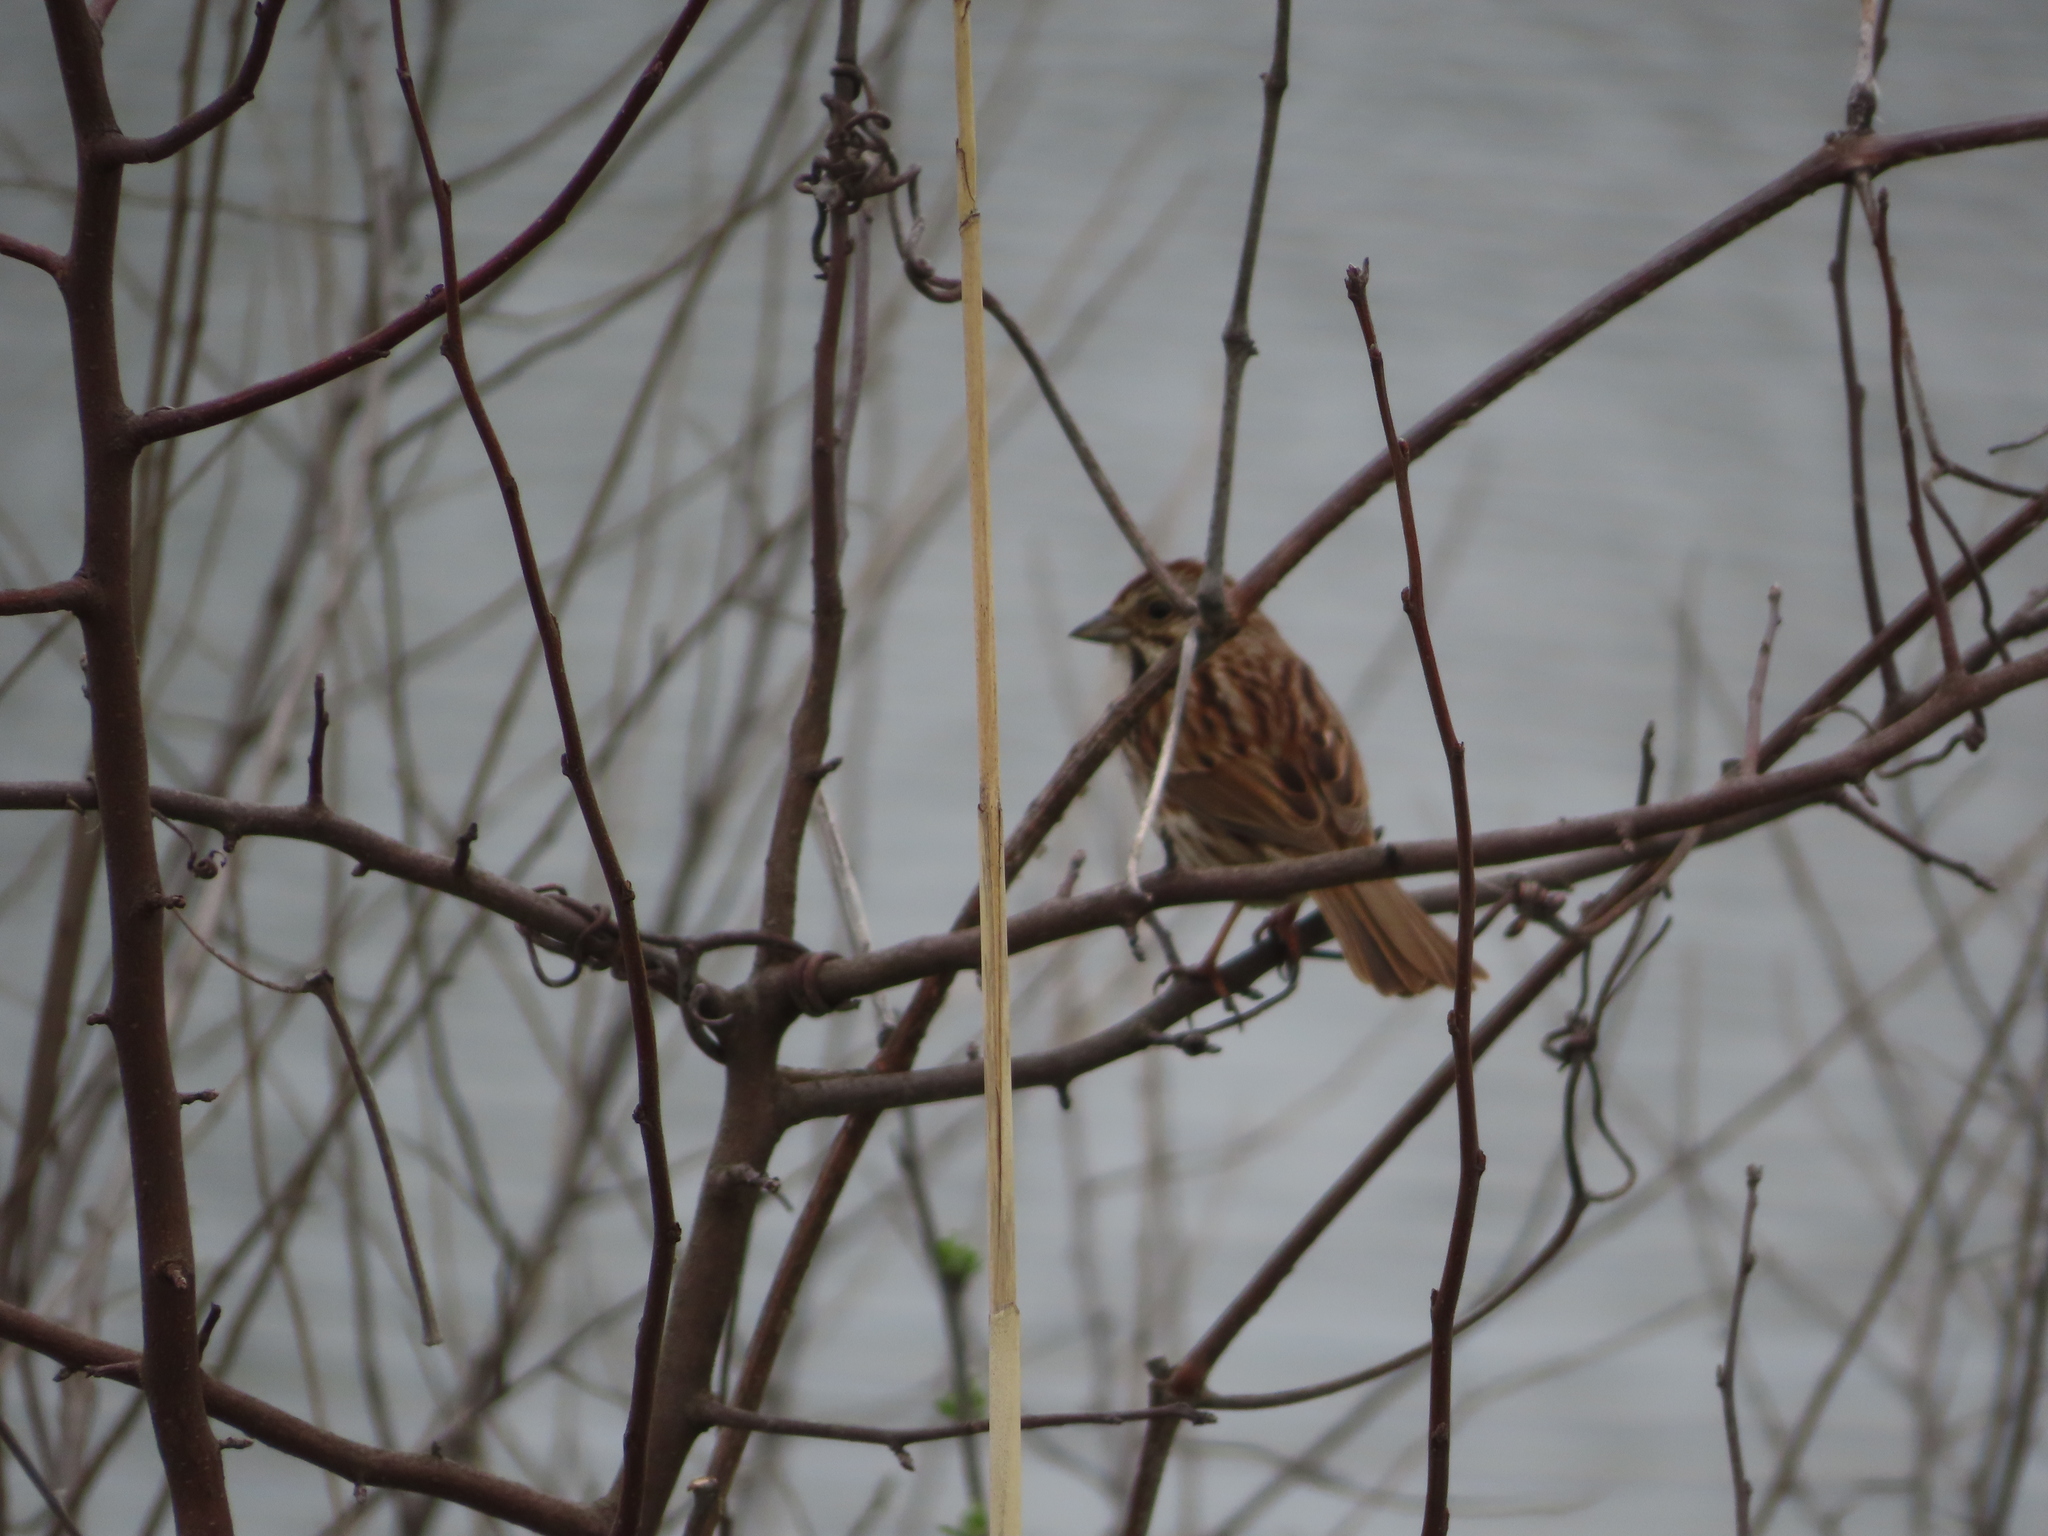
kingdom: Animalia
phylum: Chordata
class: Aves
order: Passeriformes
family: Passerellidae
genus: Melospiza
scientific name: Melospiza melodia
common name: Song sparrow
